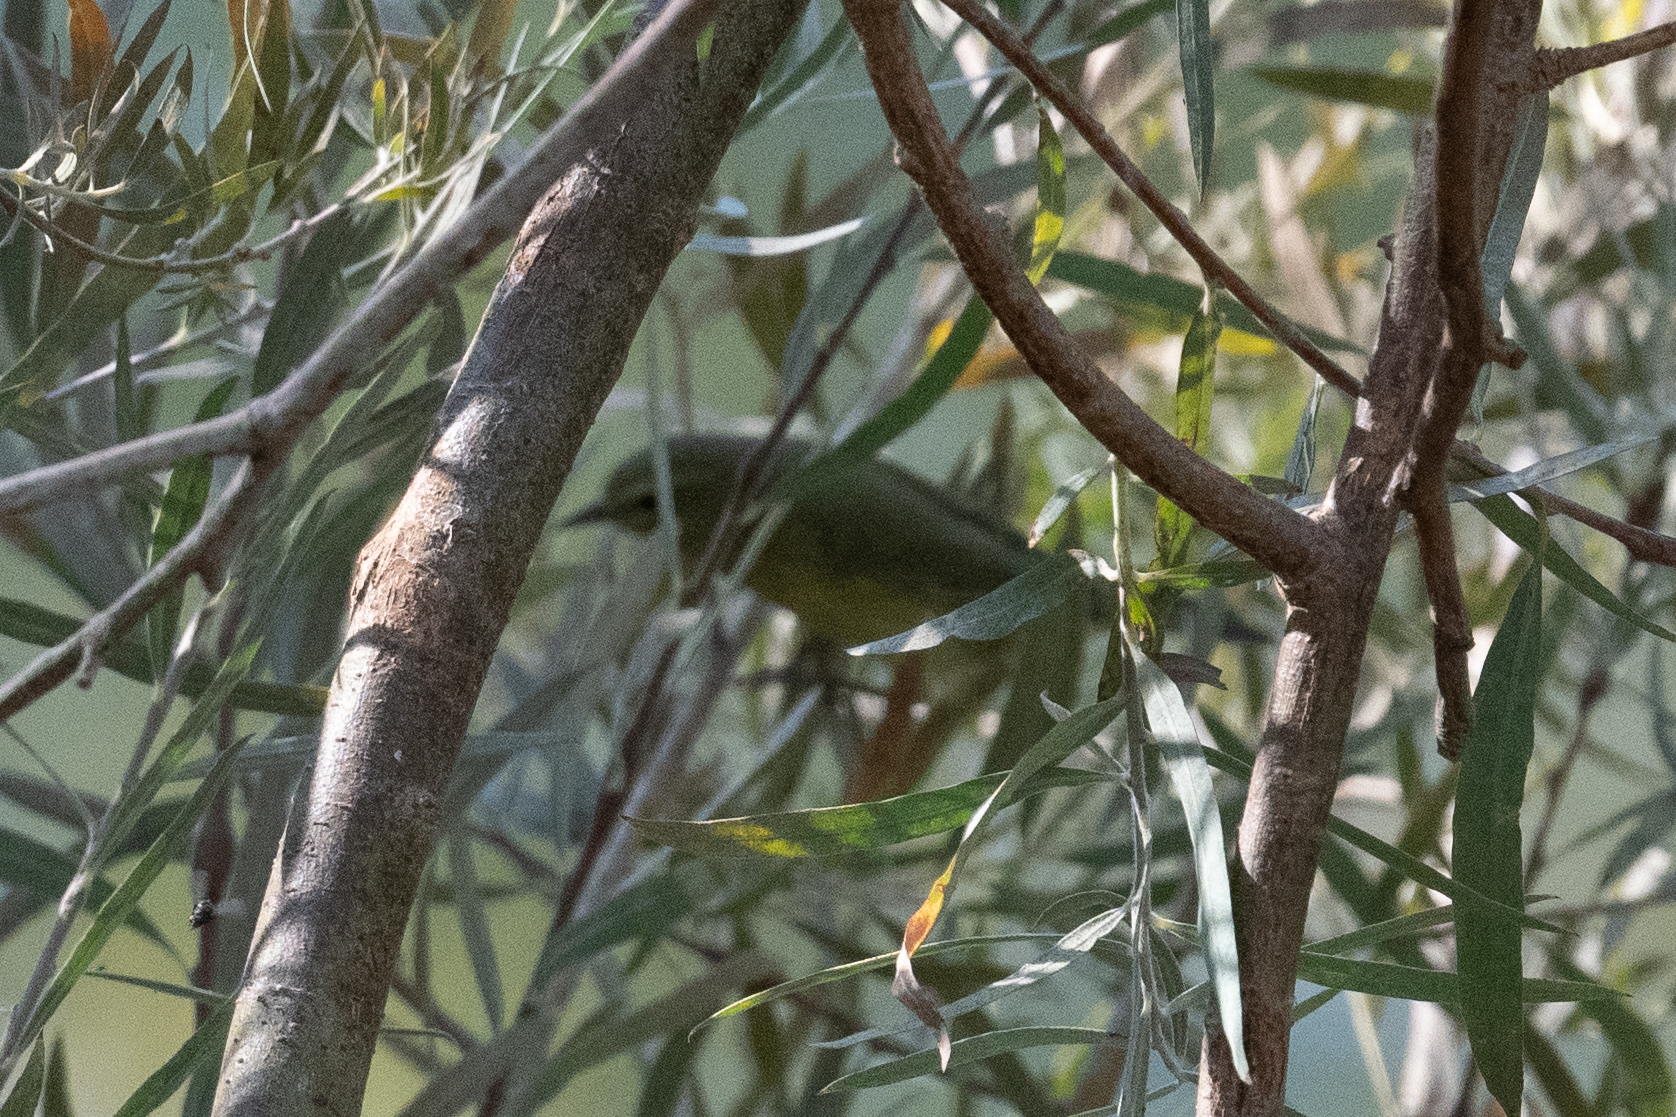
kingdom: Animalia
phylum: Chordata
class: Aves
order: Passeriformes
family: Parulidae
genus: Leiothlypis
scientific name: Leiothlypis celata
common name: Orange-crowned warbler
